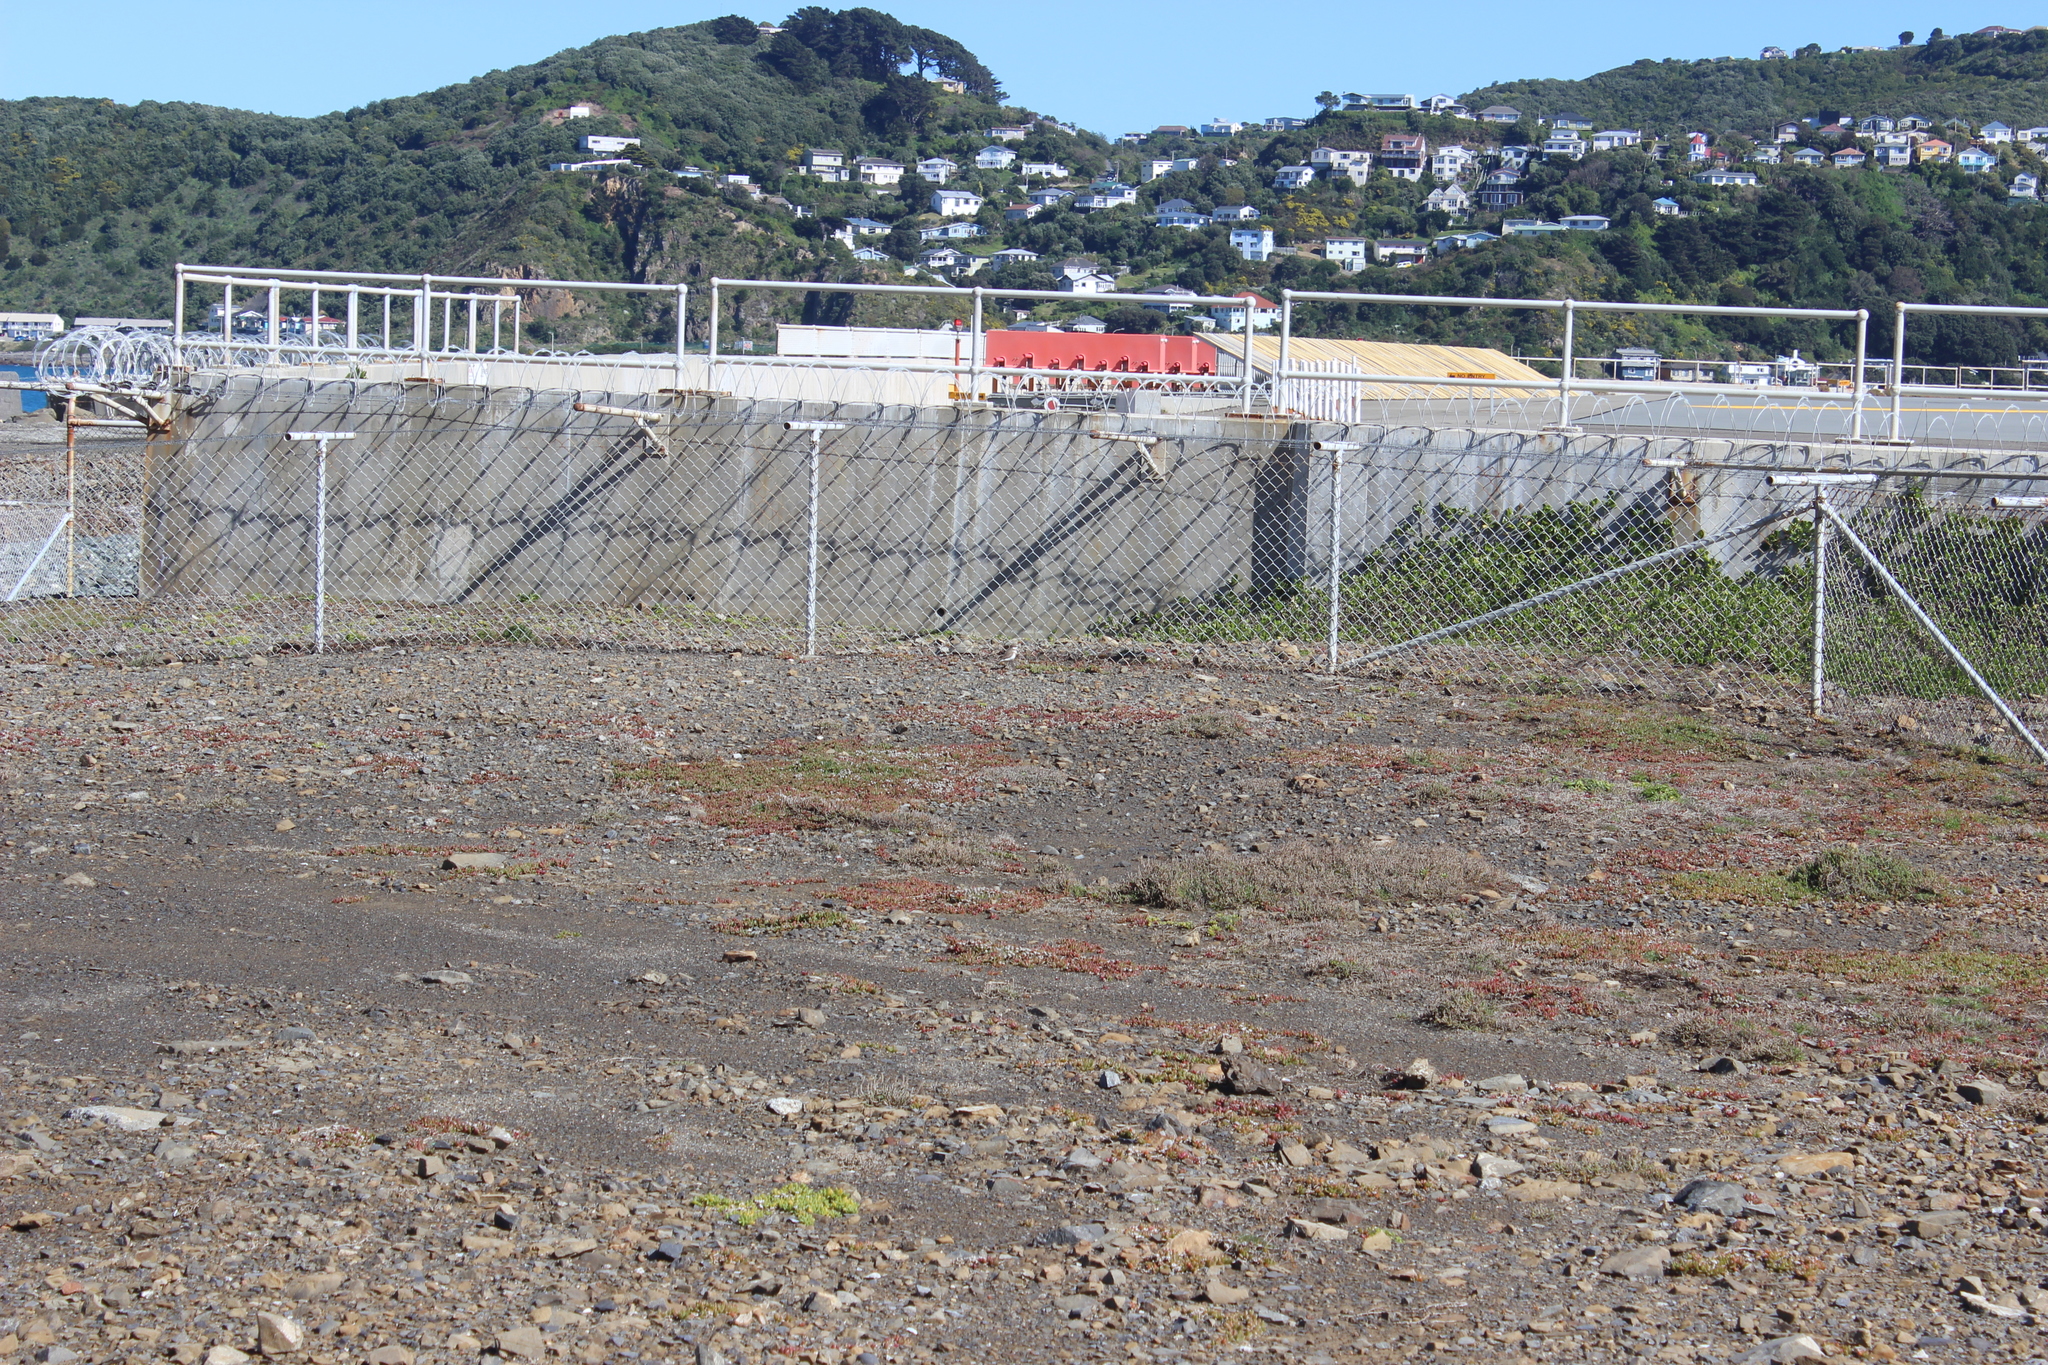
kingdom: Animalia
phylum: Chordata
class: Aves
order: Charadriiformes
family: Charadriidae
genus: Anarhynchus
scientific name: Anarhynchus
